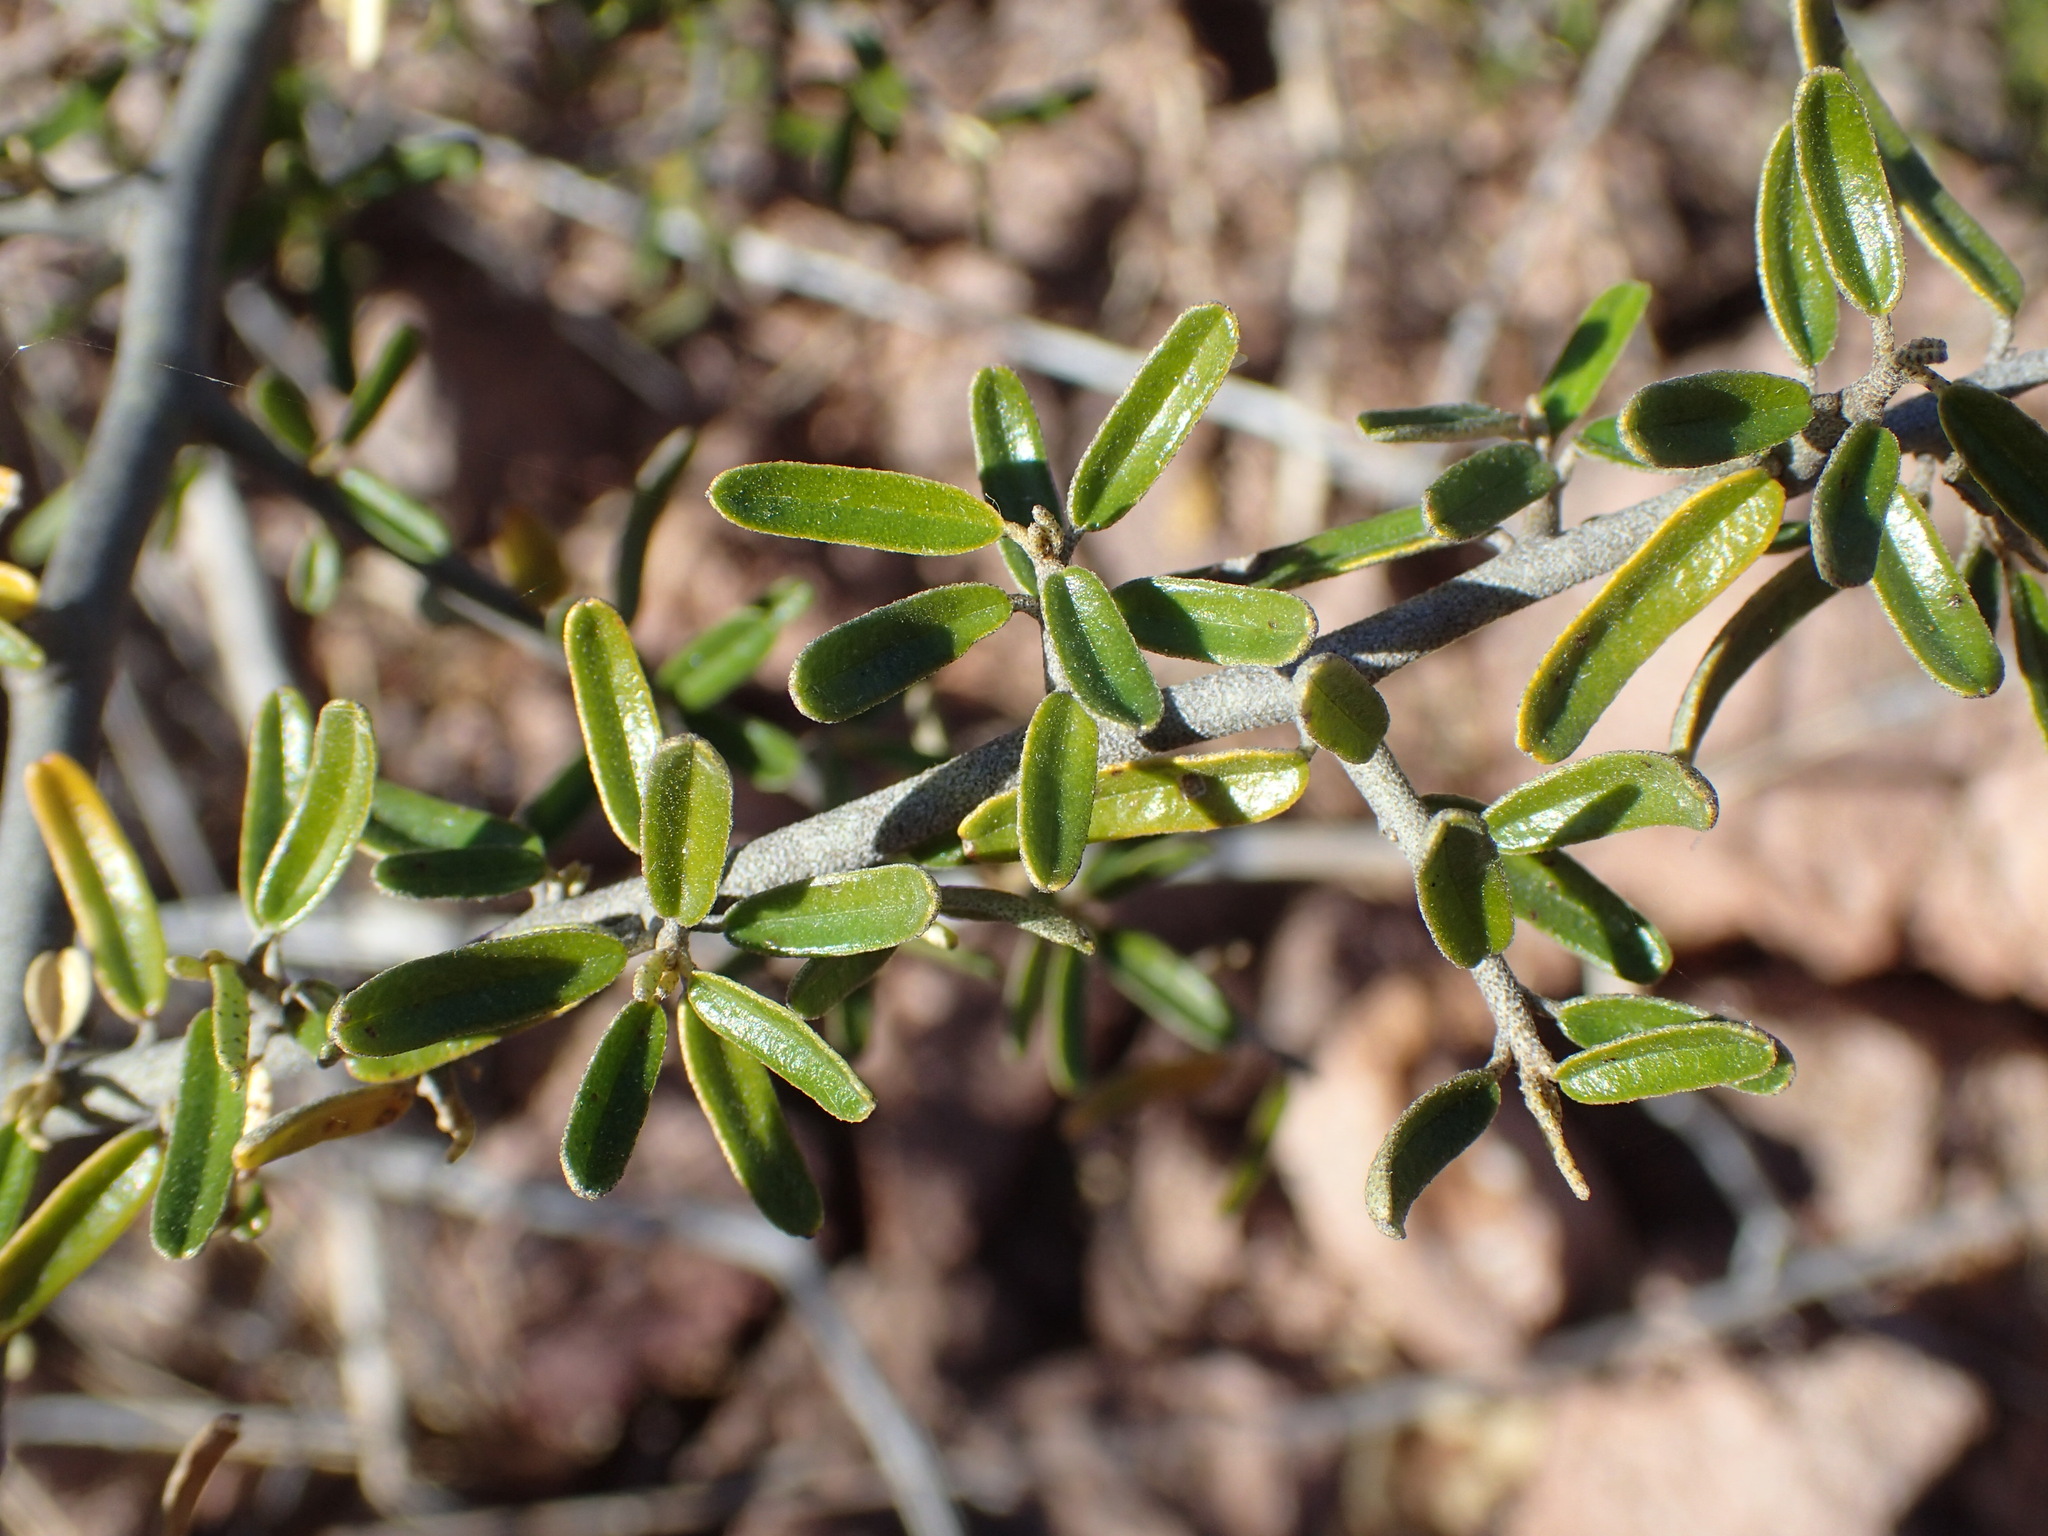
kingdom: Plantae
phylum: Tracheophyta
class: Magnoliopsida
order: Brassicales
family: Capparaceae
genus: Atamisquea
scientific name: Atamisquea emarginata
